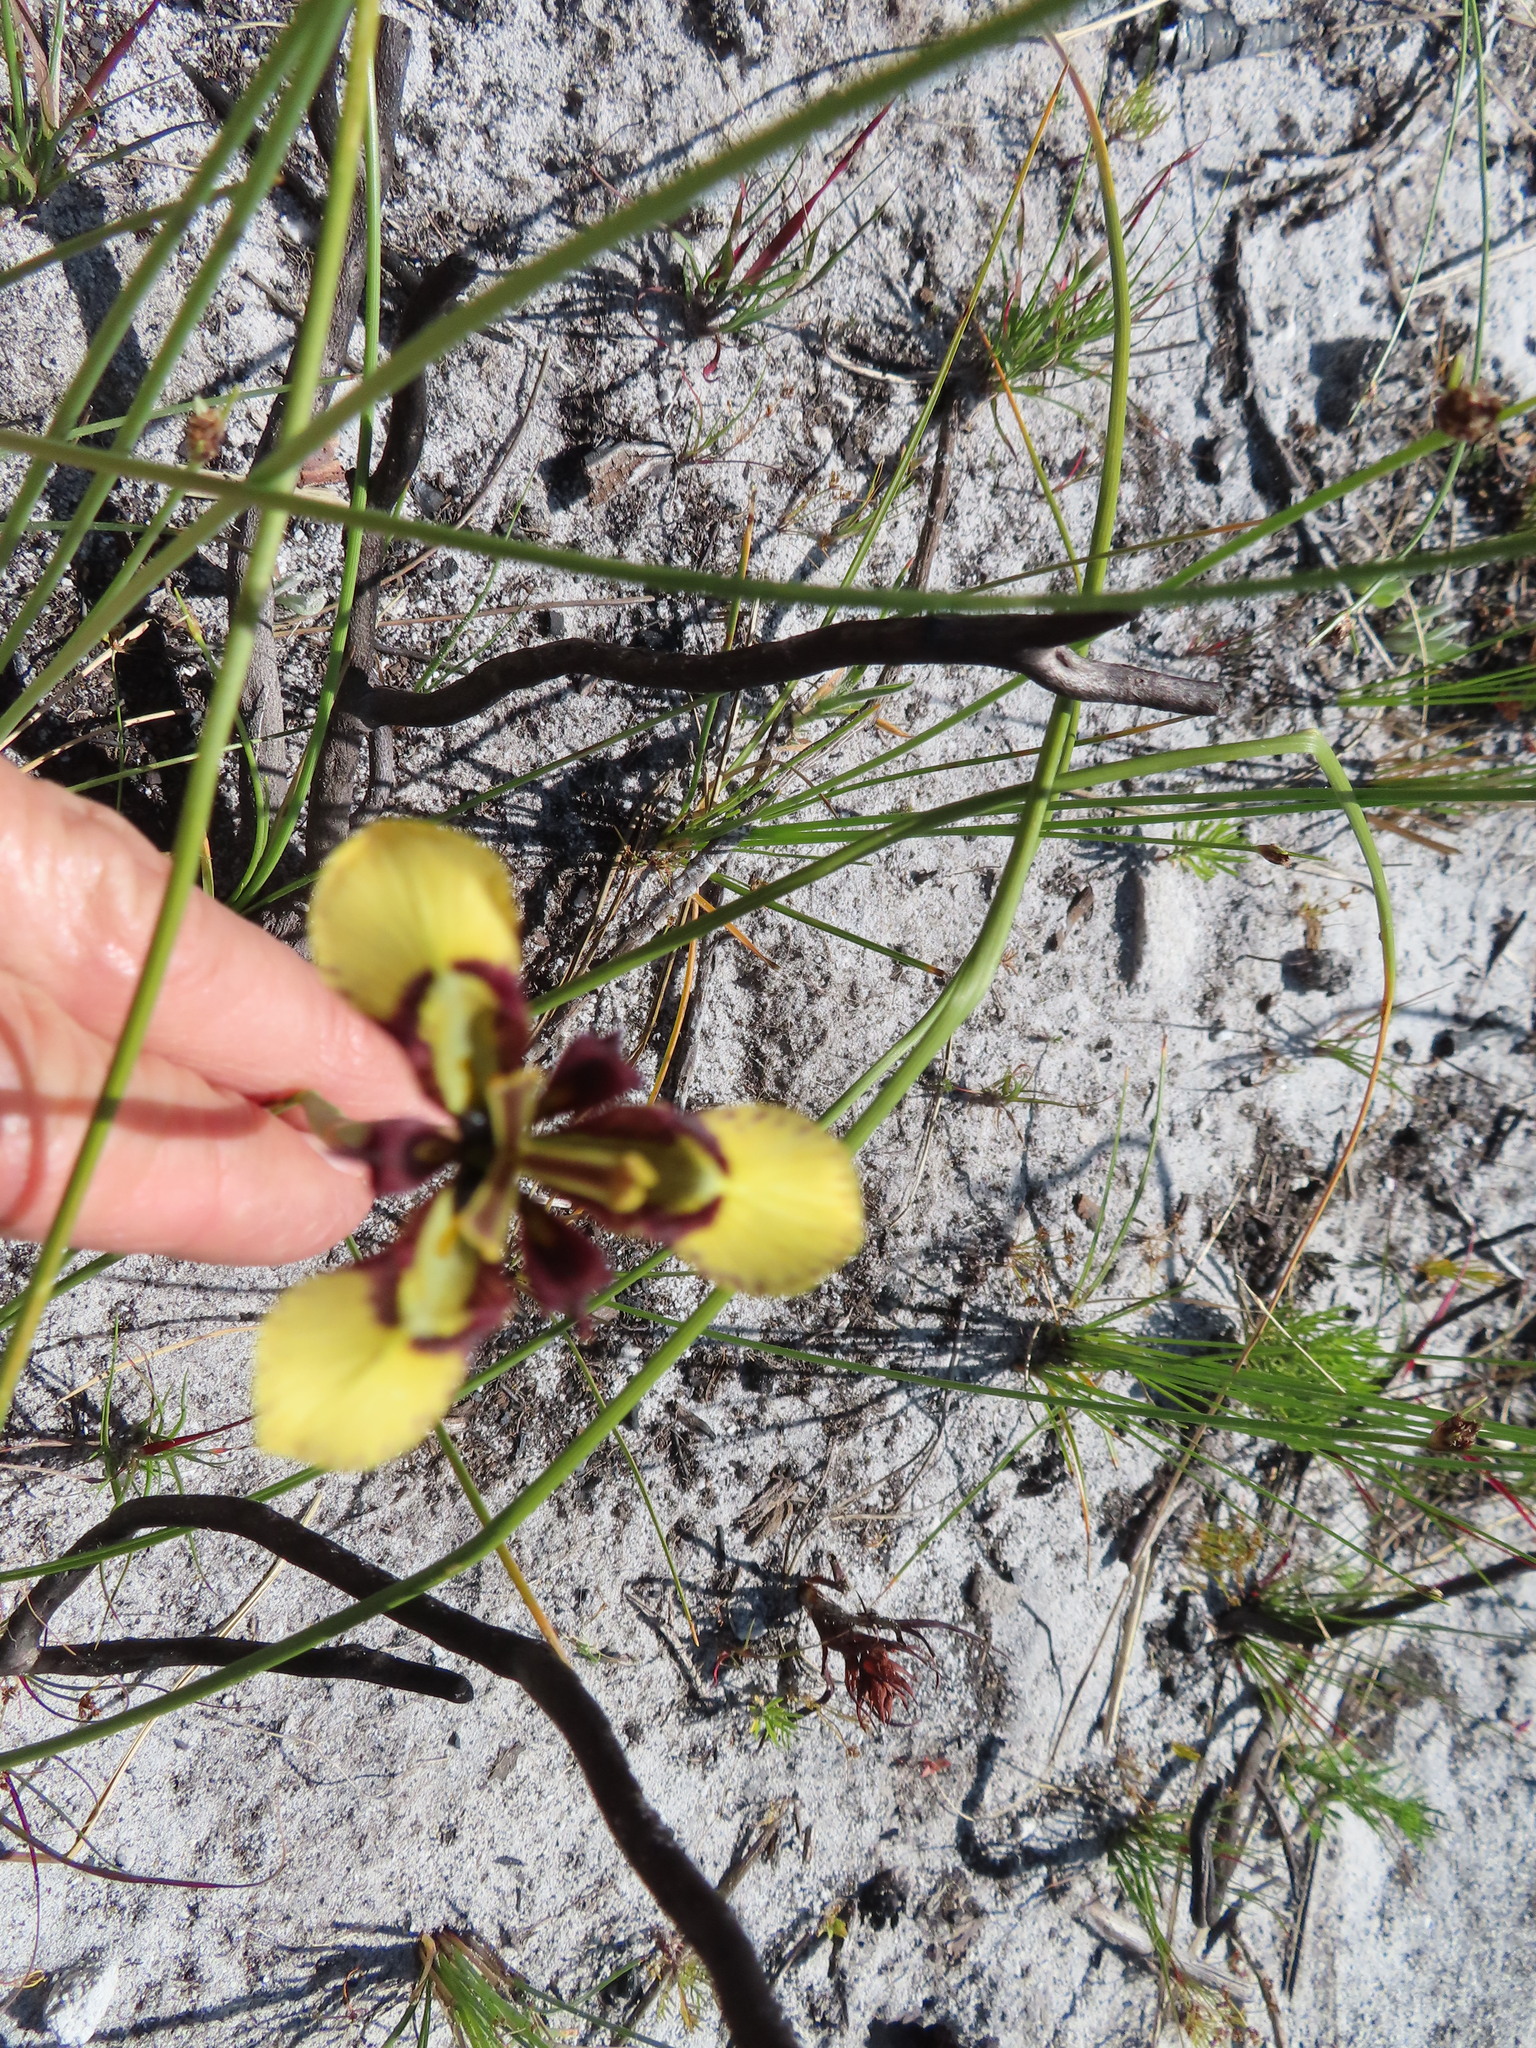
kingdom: Plantae
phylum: Tracheophyta
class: Liliopsida
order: Asparagales
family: Iridaceae
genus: Moraea
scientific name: Moraea lurida
